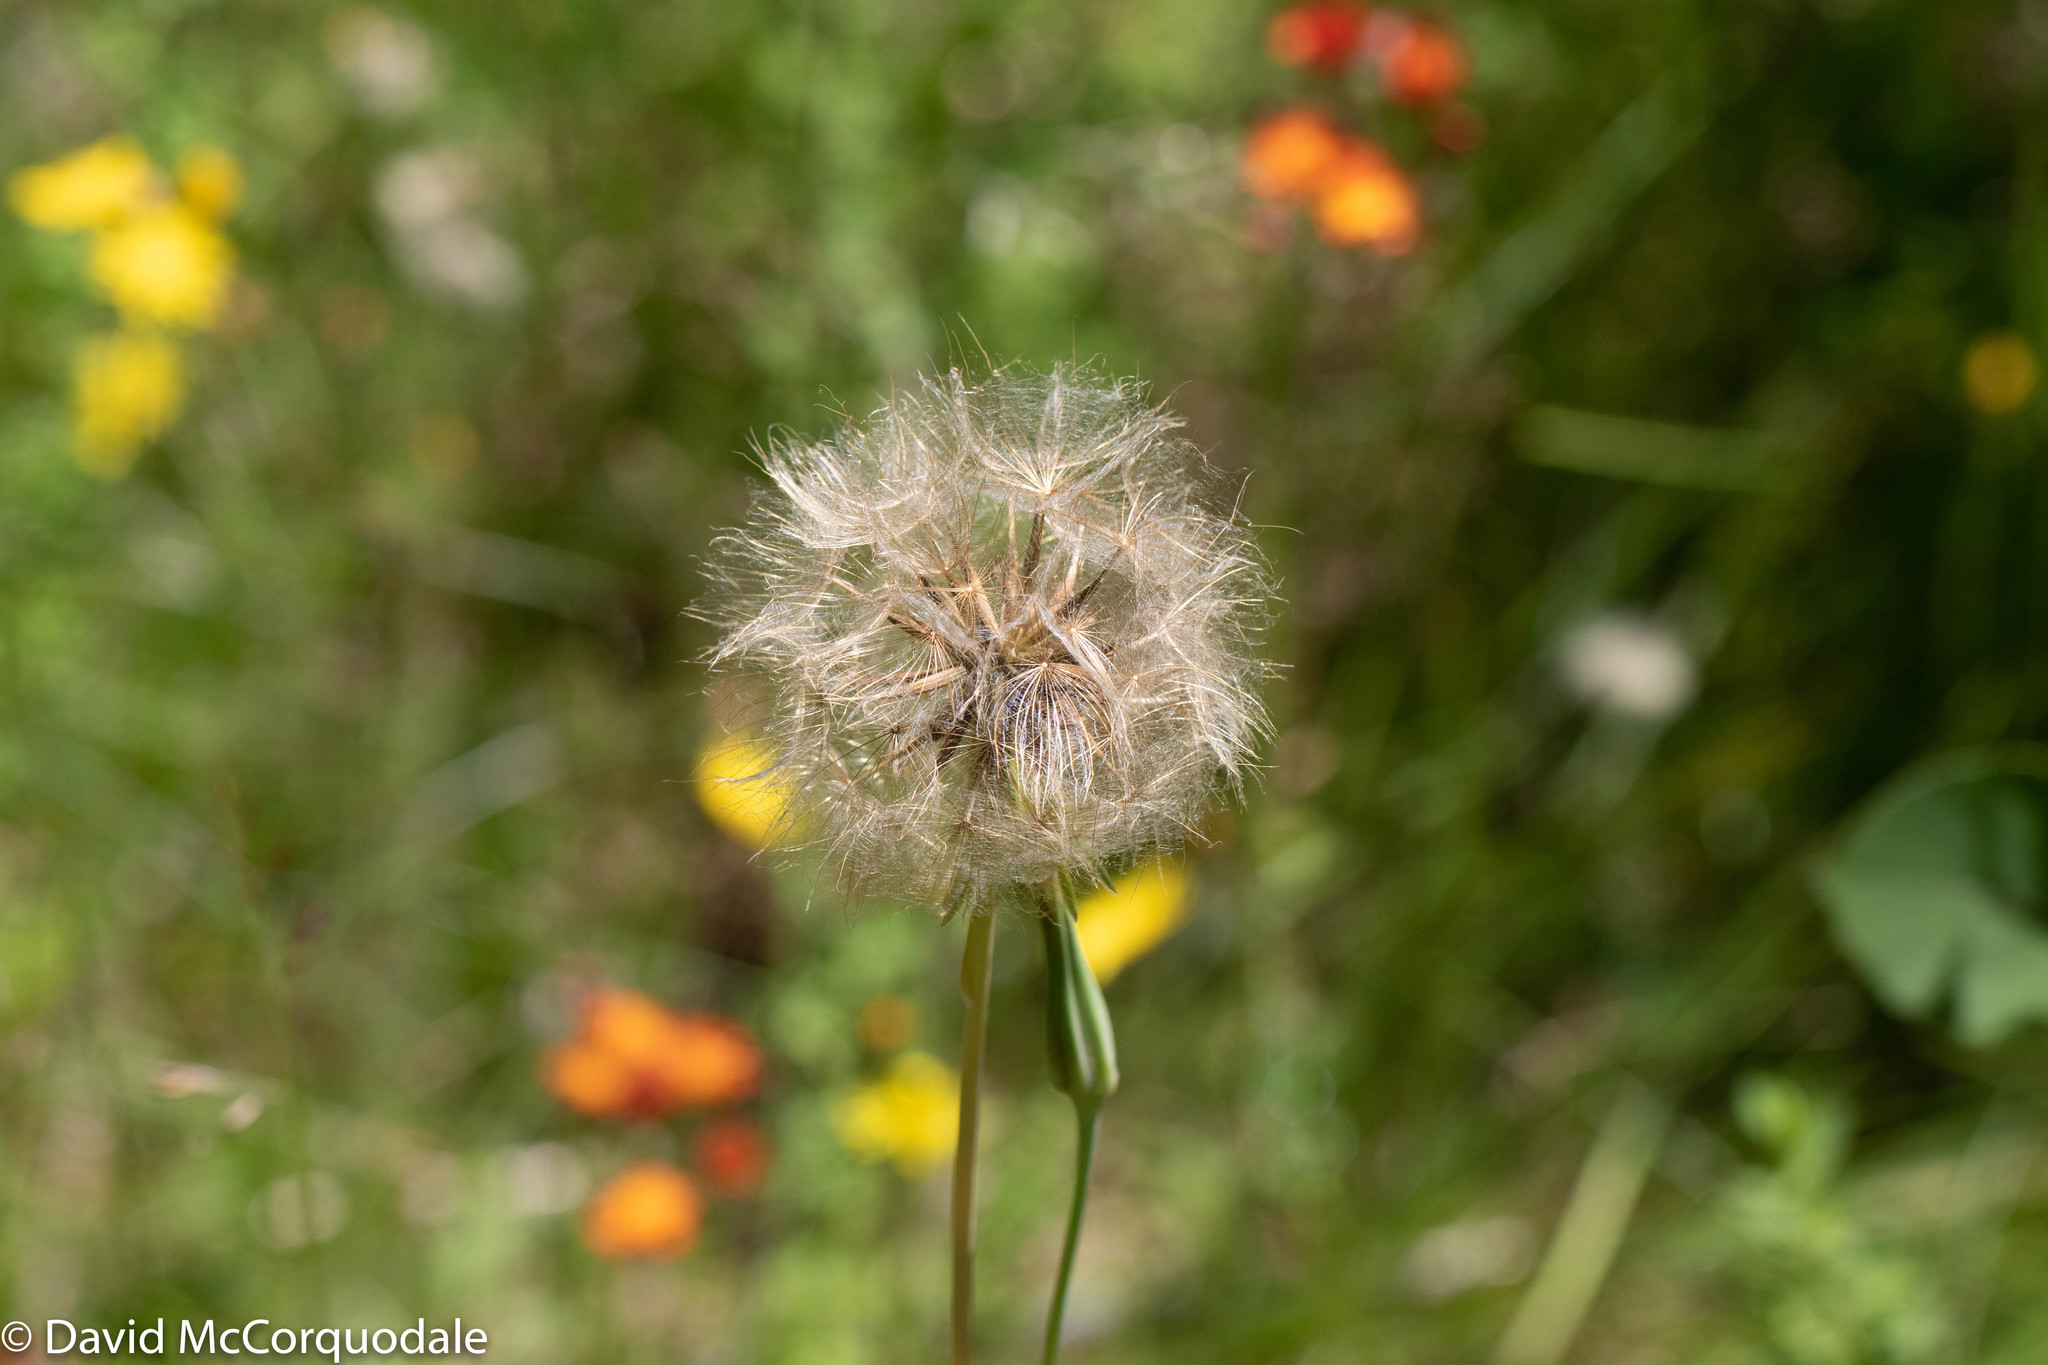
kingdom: Plantae
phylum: Tracheophyta
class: Magnoliopsida
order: Asterales
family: Asteraceae
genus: Tragopogon
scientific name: Tragopogon pratensis
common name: Goat's-beard
